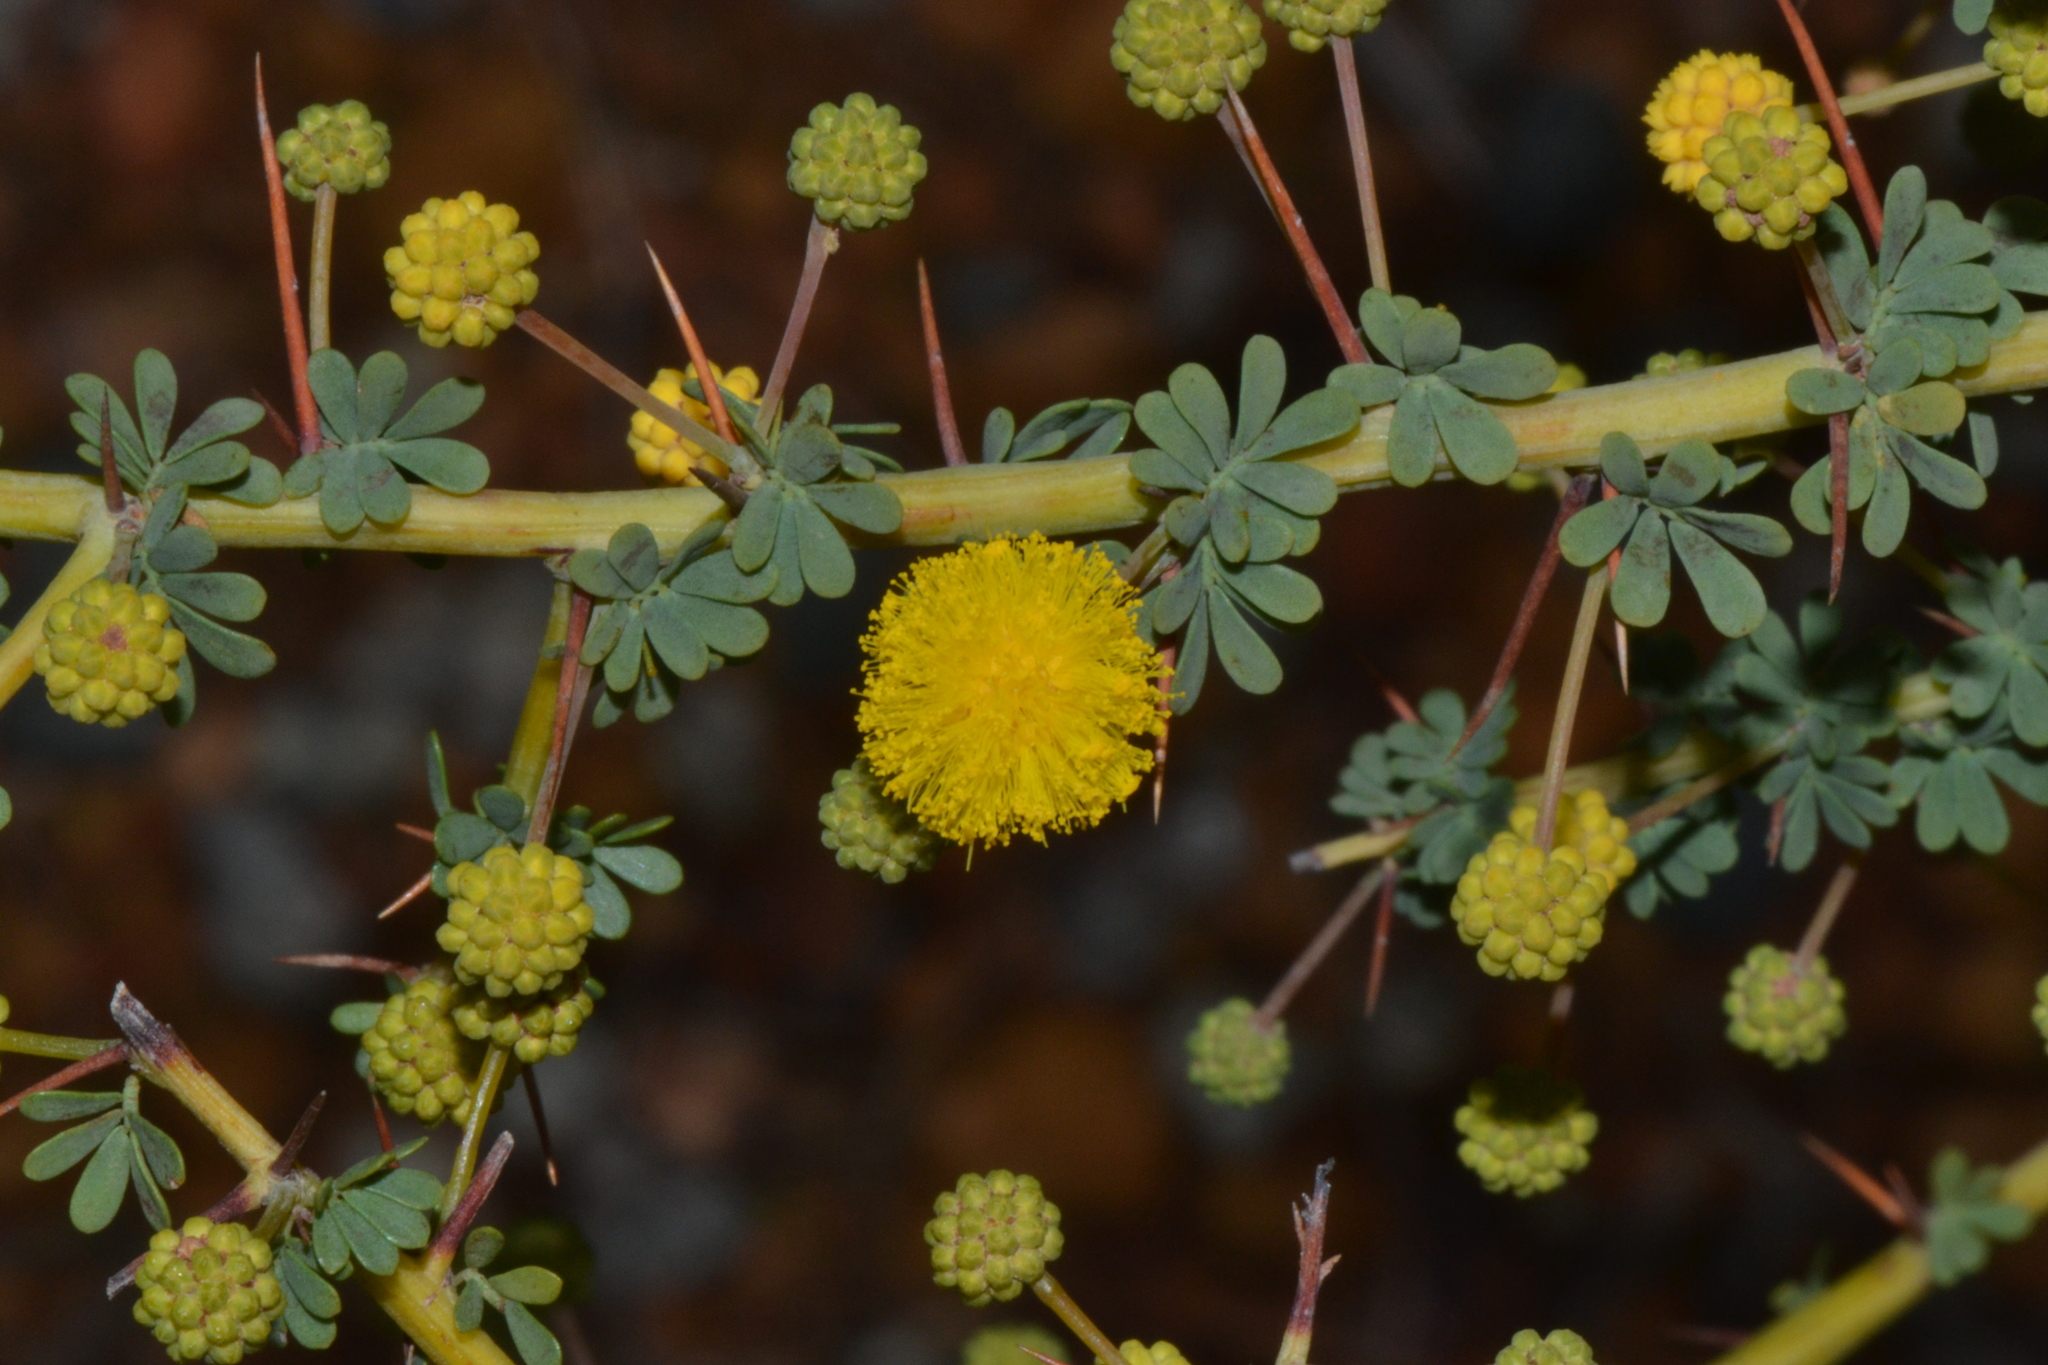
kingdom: Plantae
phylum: Tracheophyta
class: Magnoliopsida
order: Fabales
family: Fabaceae
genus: Acacia
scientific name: Acacia pulchella
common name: Prickly moses
